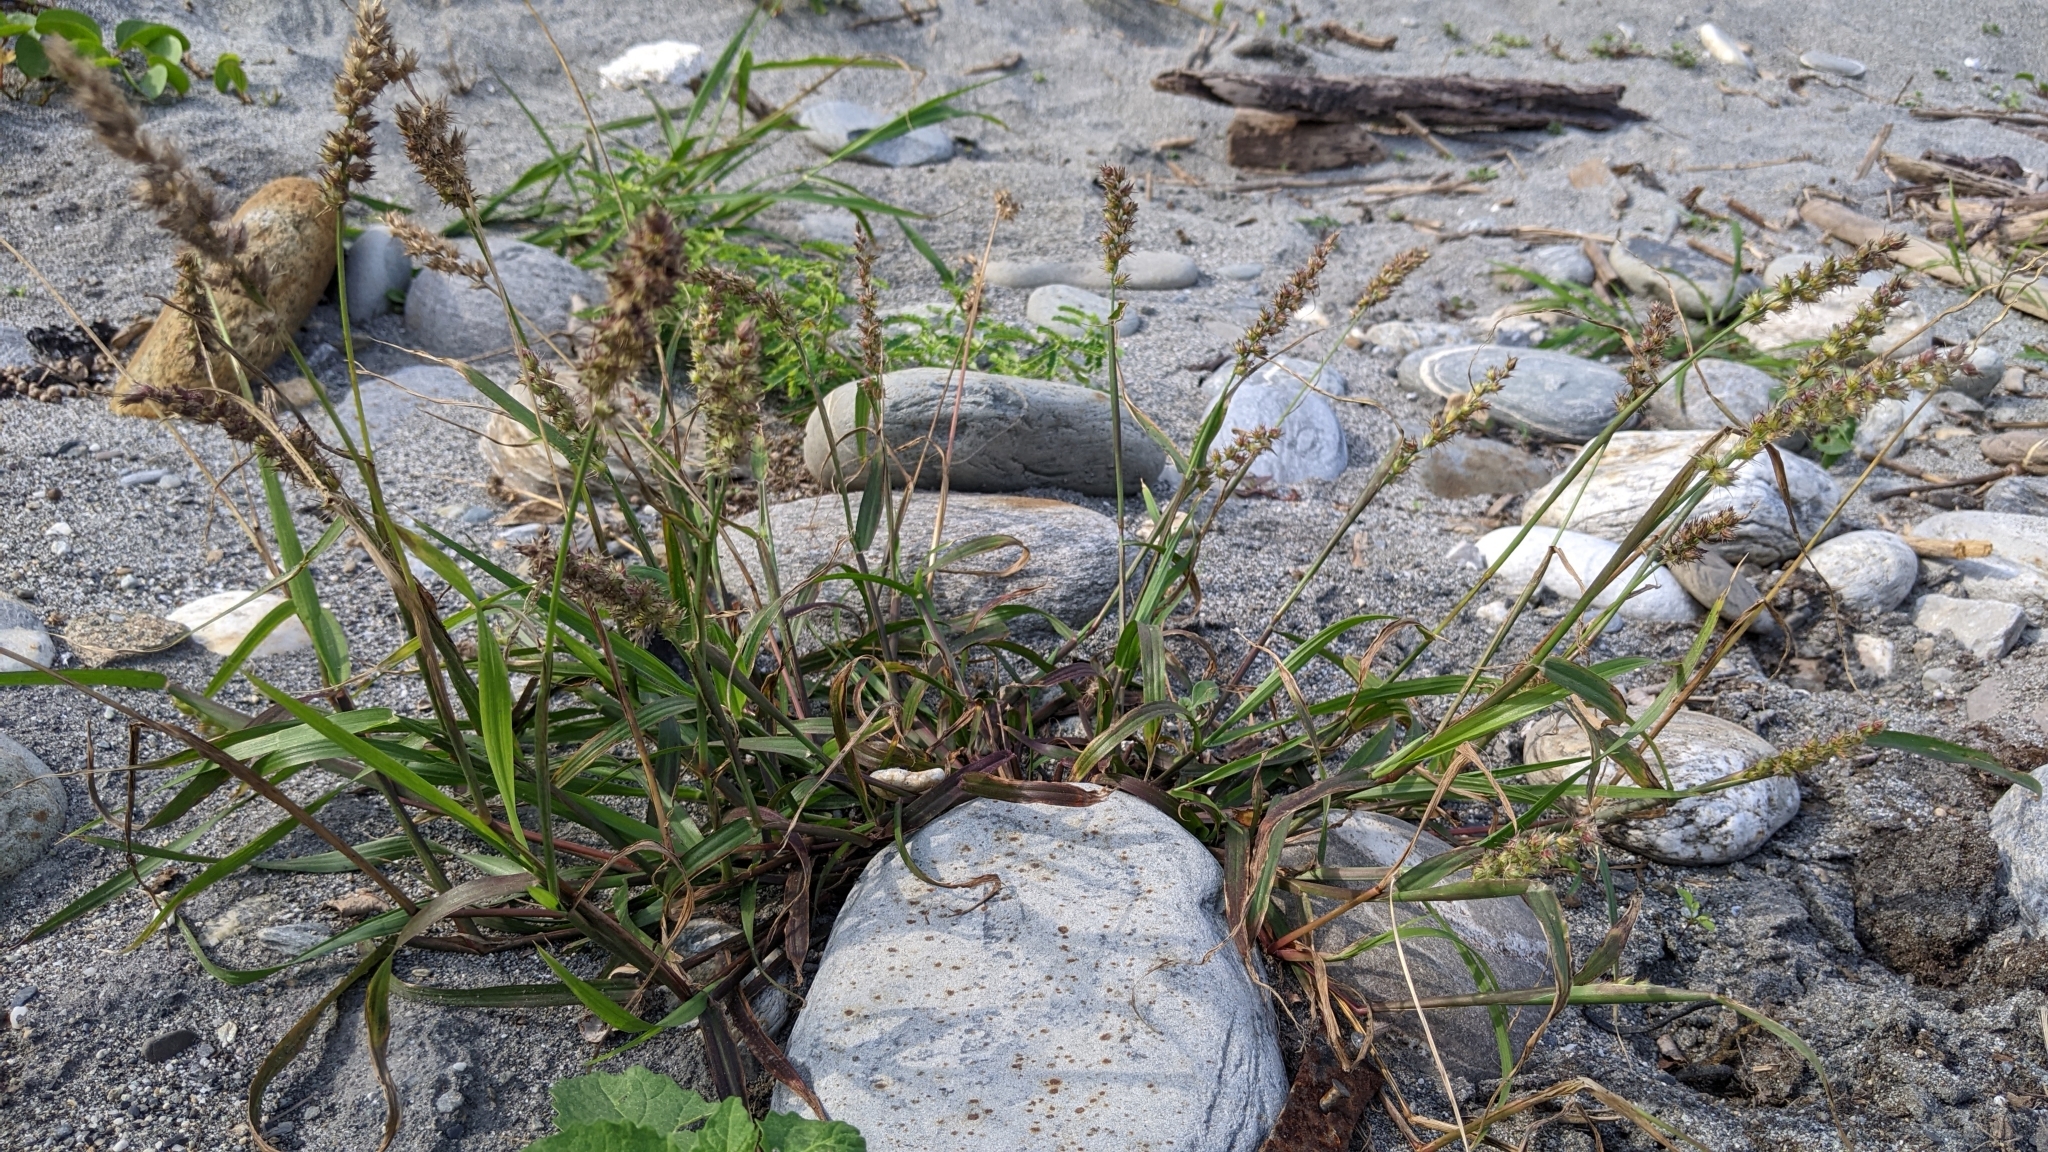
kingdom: Plantae
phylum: Tracheophyta
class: Liliopsida
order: Poales
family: Poaceae
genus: Cenchrus
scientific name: Cenchrus echinatus
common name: Southern sandbur
